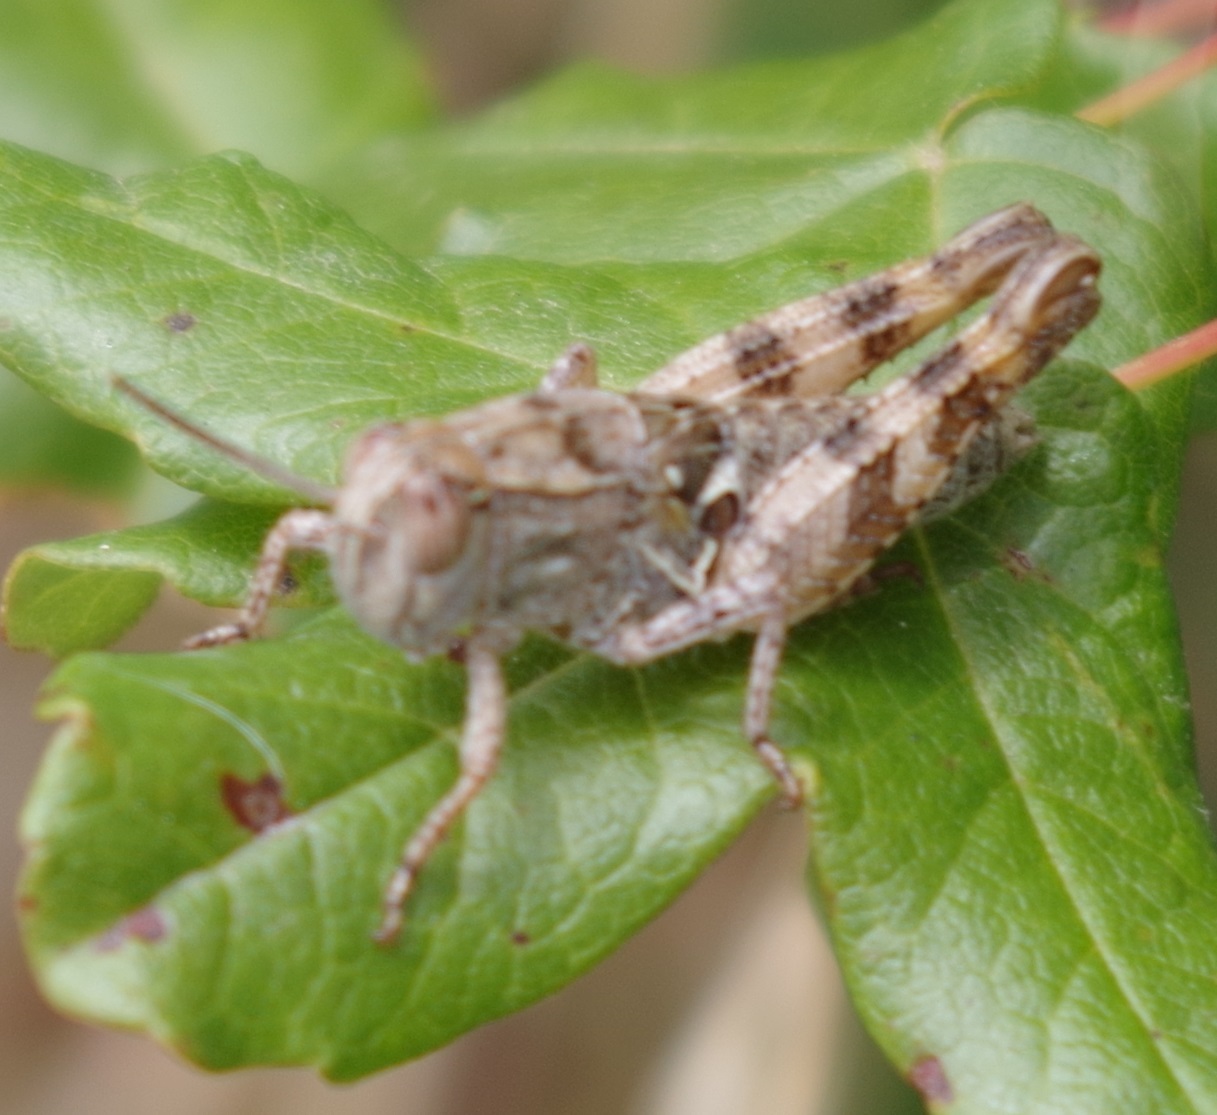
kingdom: Animalia
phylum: Arthropoda
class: Insecta
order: Orthoptera
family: Acrididae
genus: Calliptamus
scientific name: Calliptamus italicus
